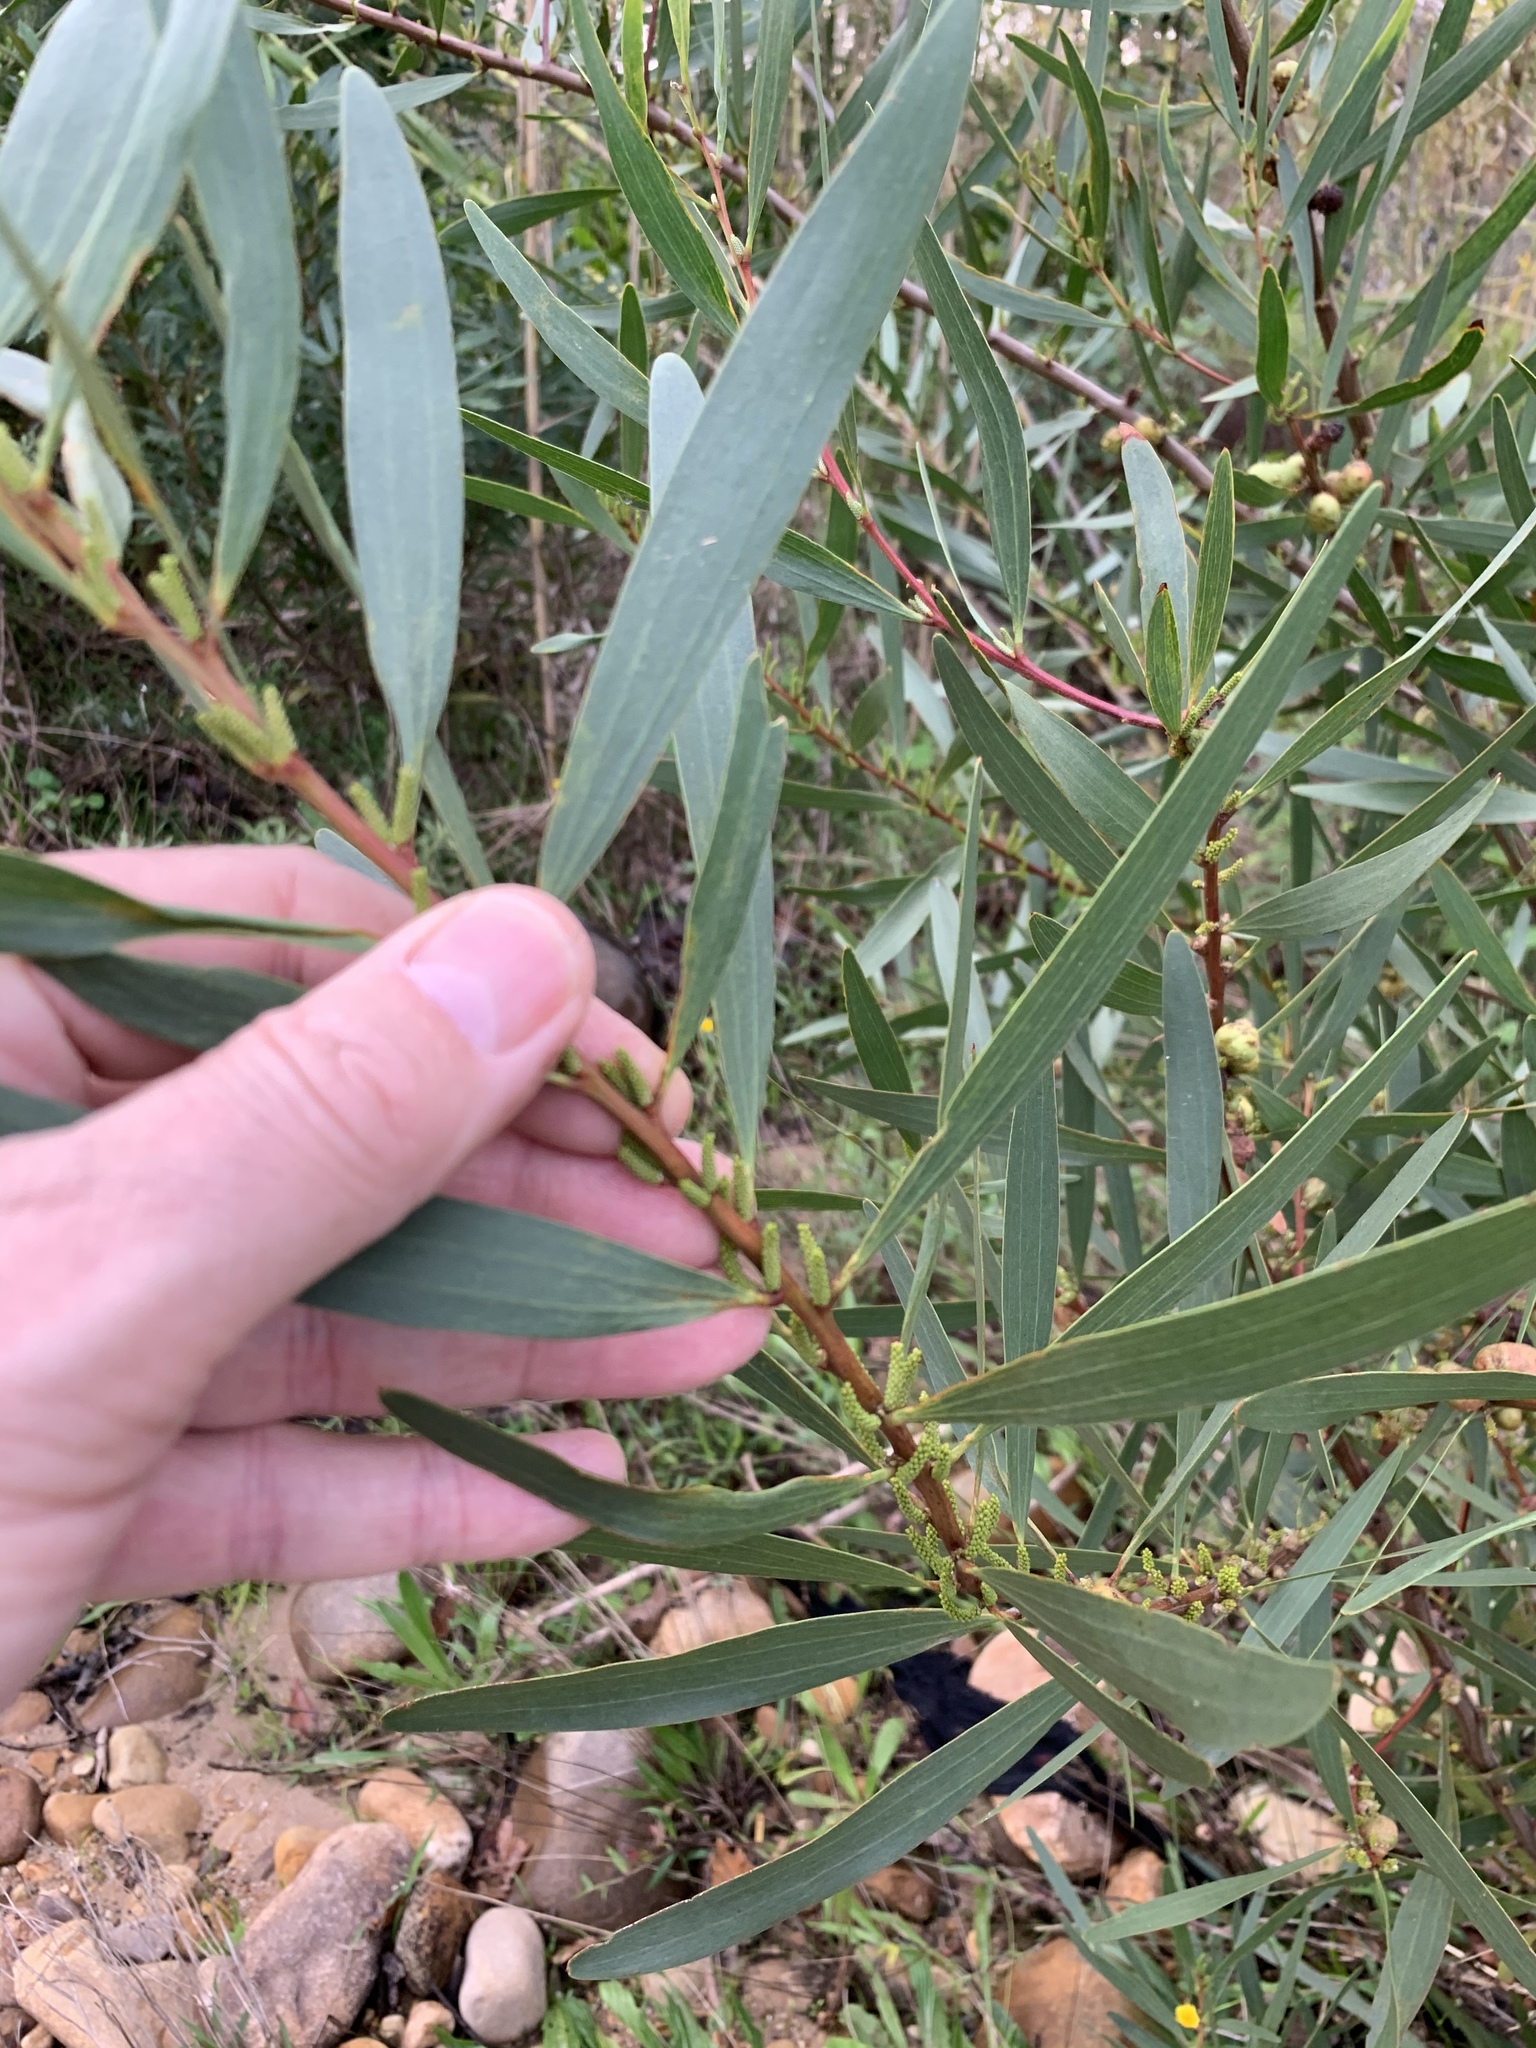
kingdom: Plantae
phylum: Tracheophyta
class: Magnoliopsida
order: Fabales
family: Fabaceae
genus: Acacia
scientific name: Acacia longifolia
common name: Sydney golden wattle
